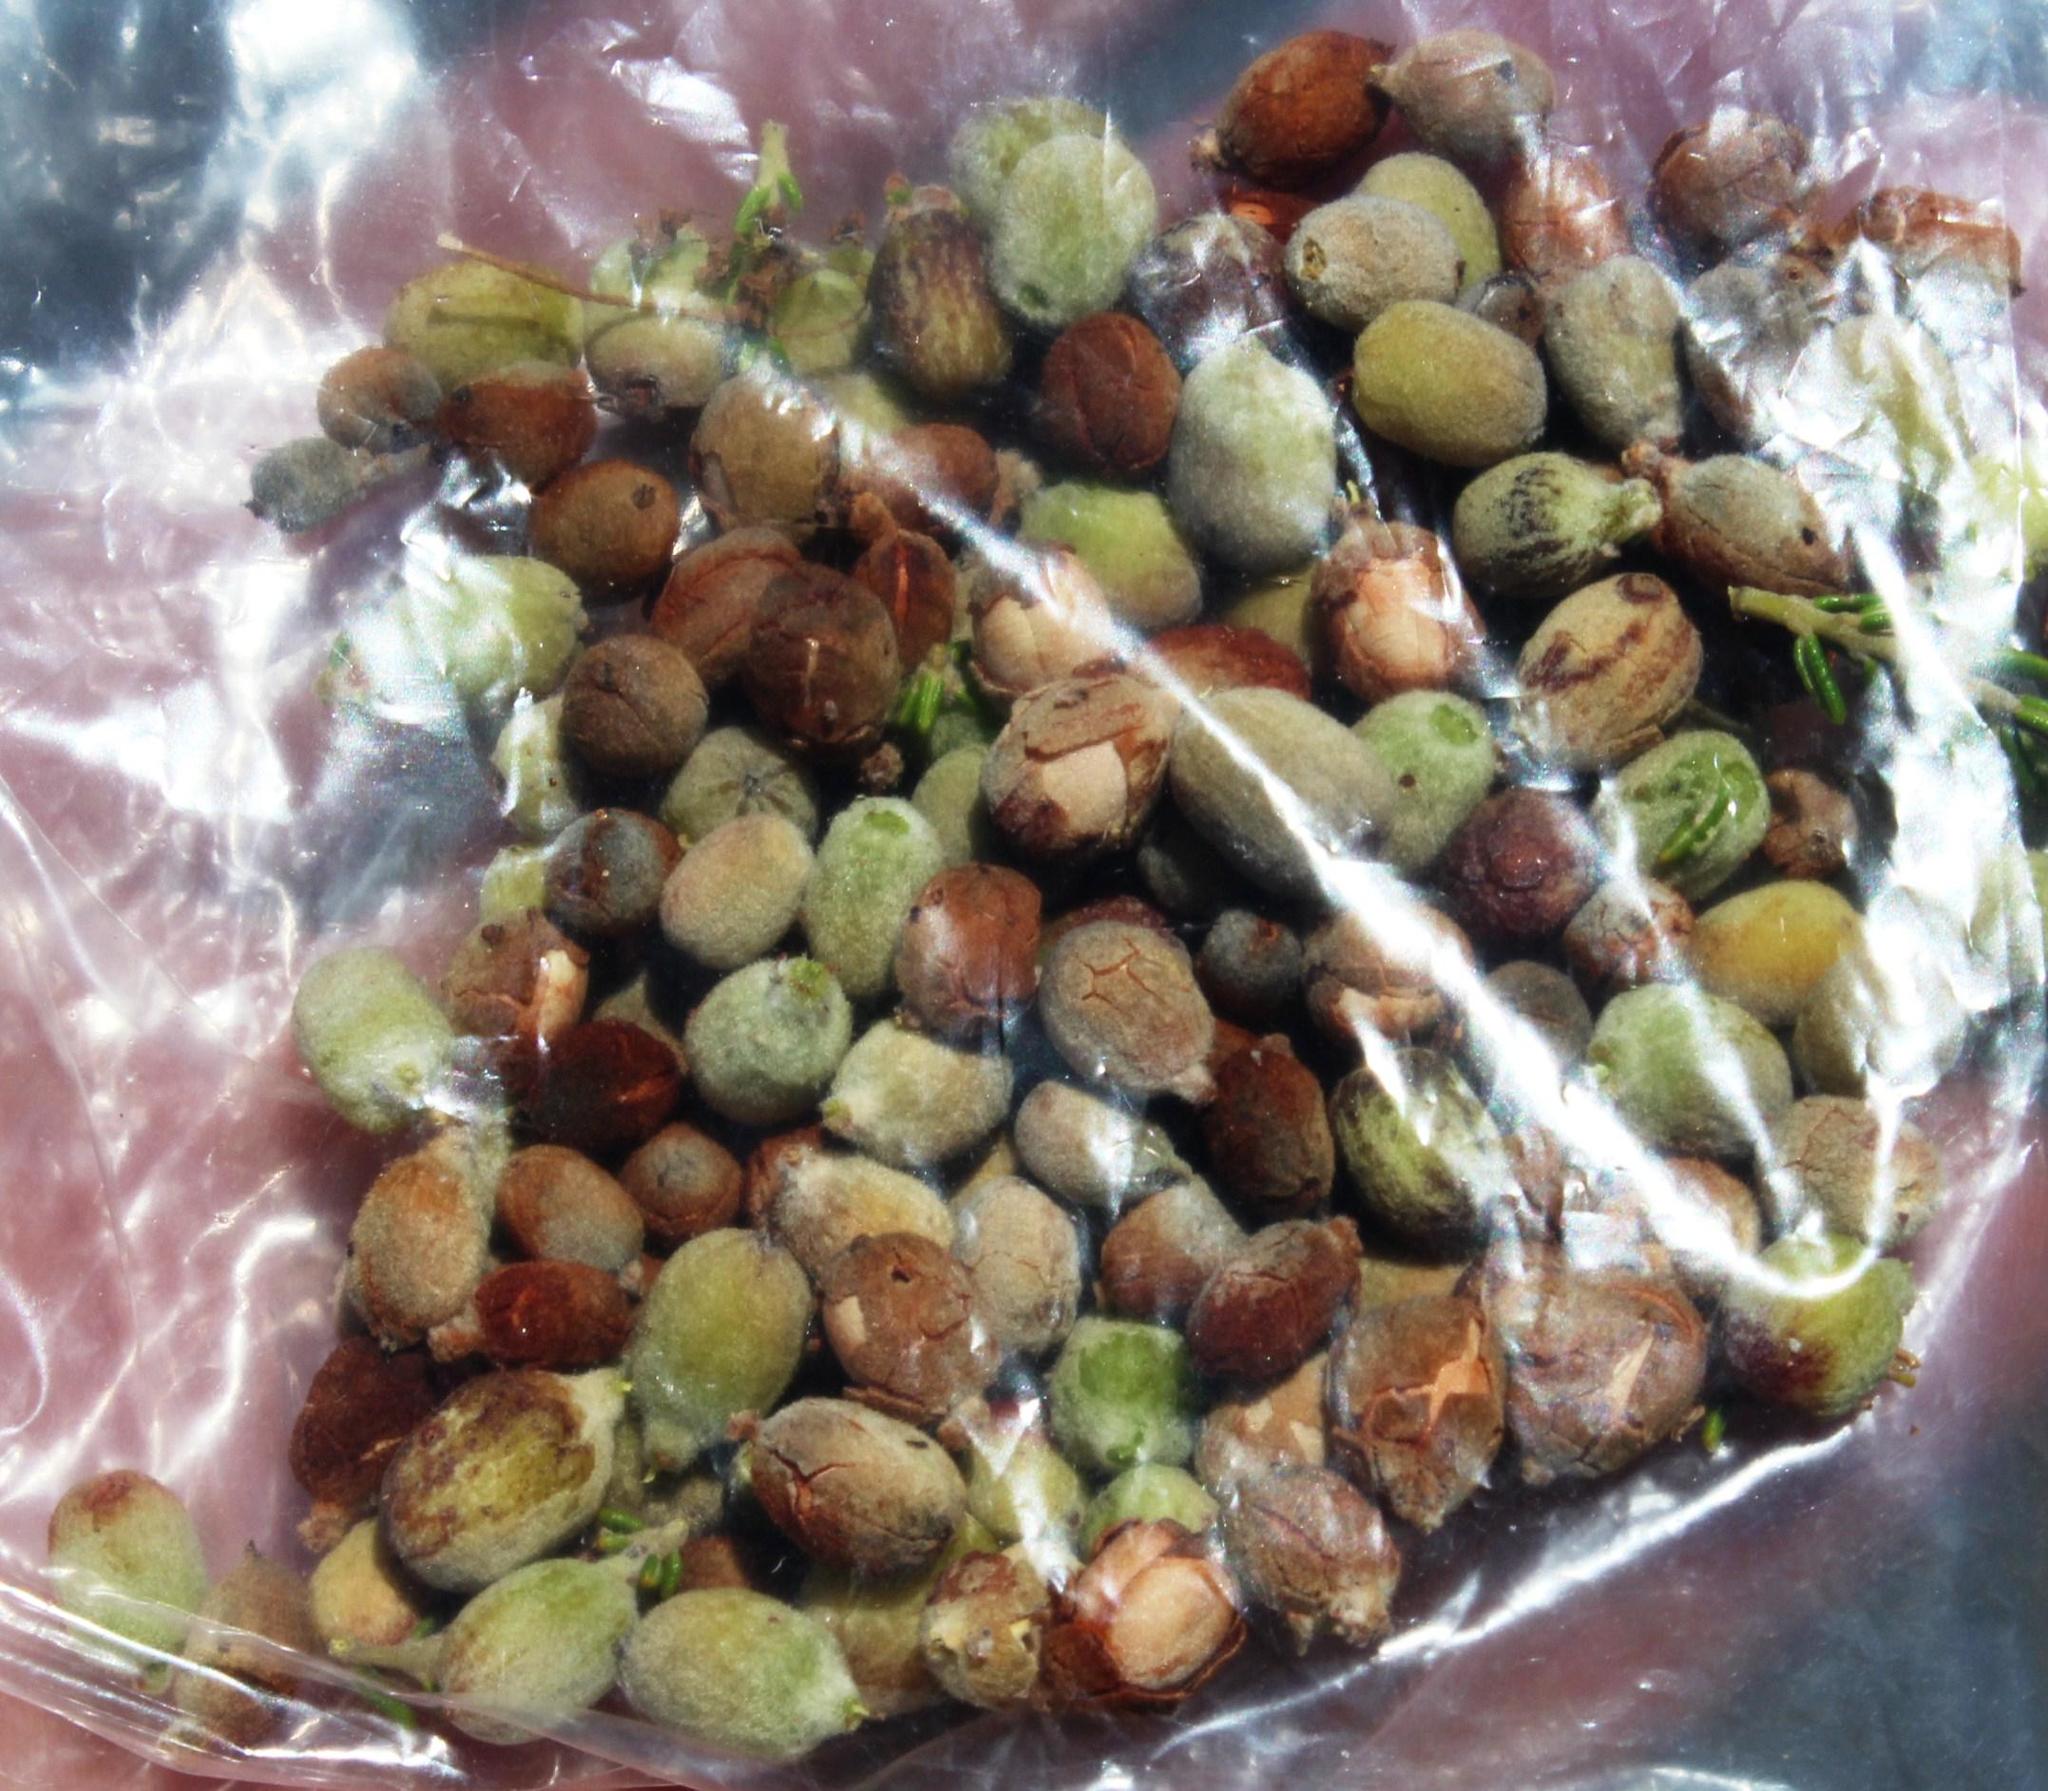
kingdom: Plantae
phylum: Tracheophyta
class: Magnoliopsida
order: Rosales
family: Rhamnaceae
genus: Phylica
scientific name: Phylica cephalantha
